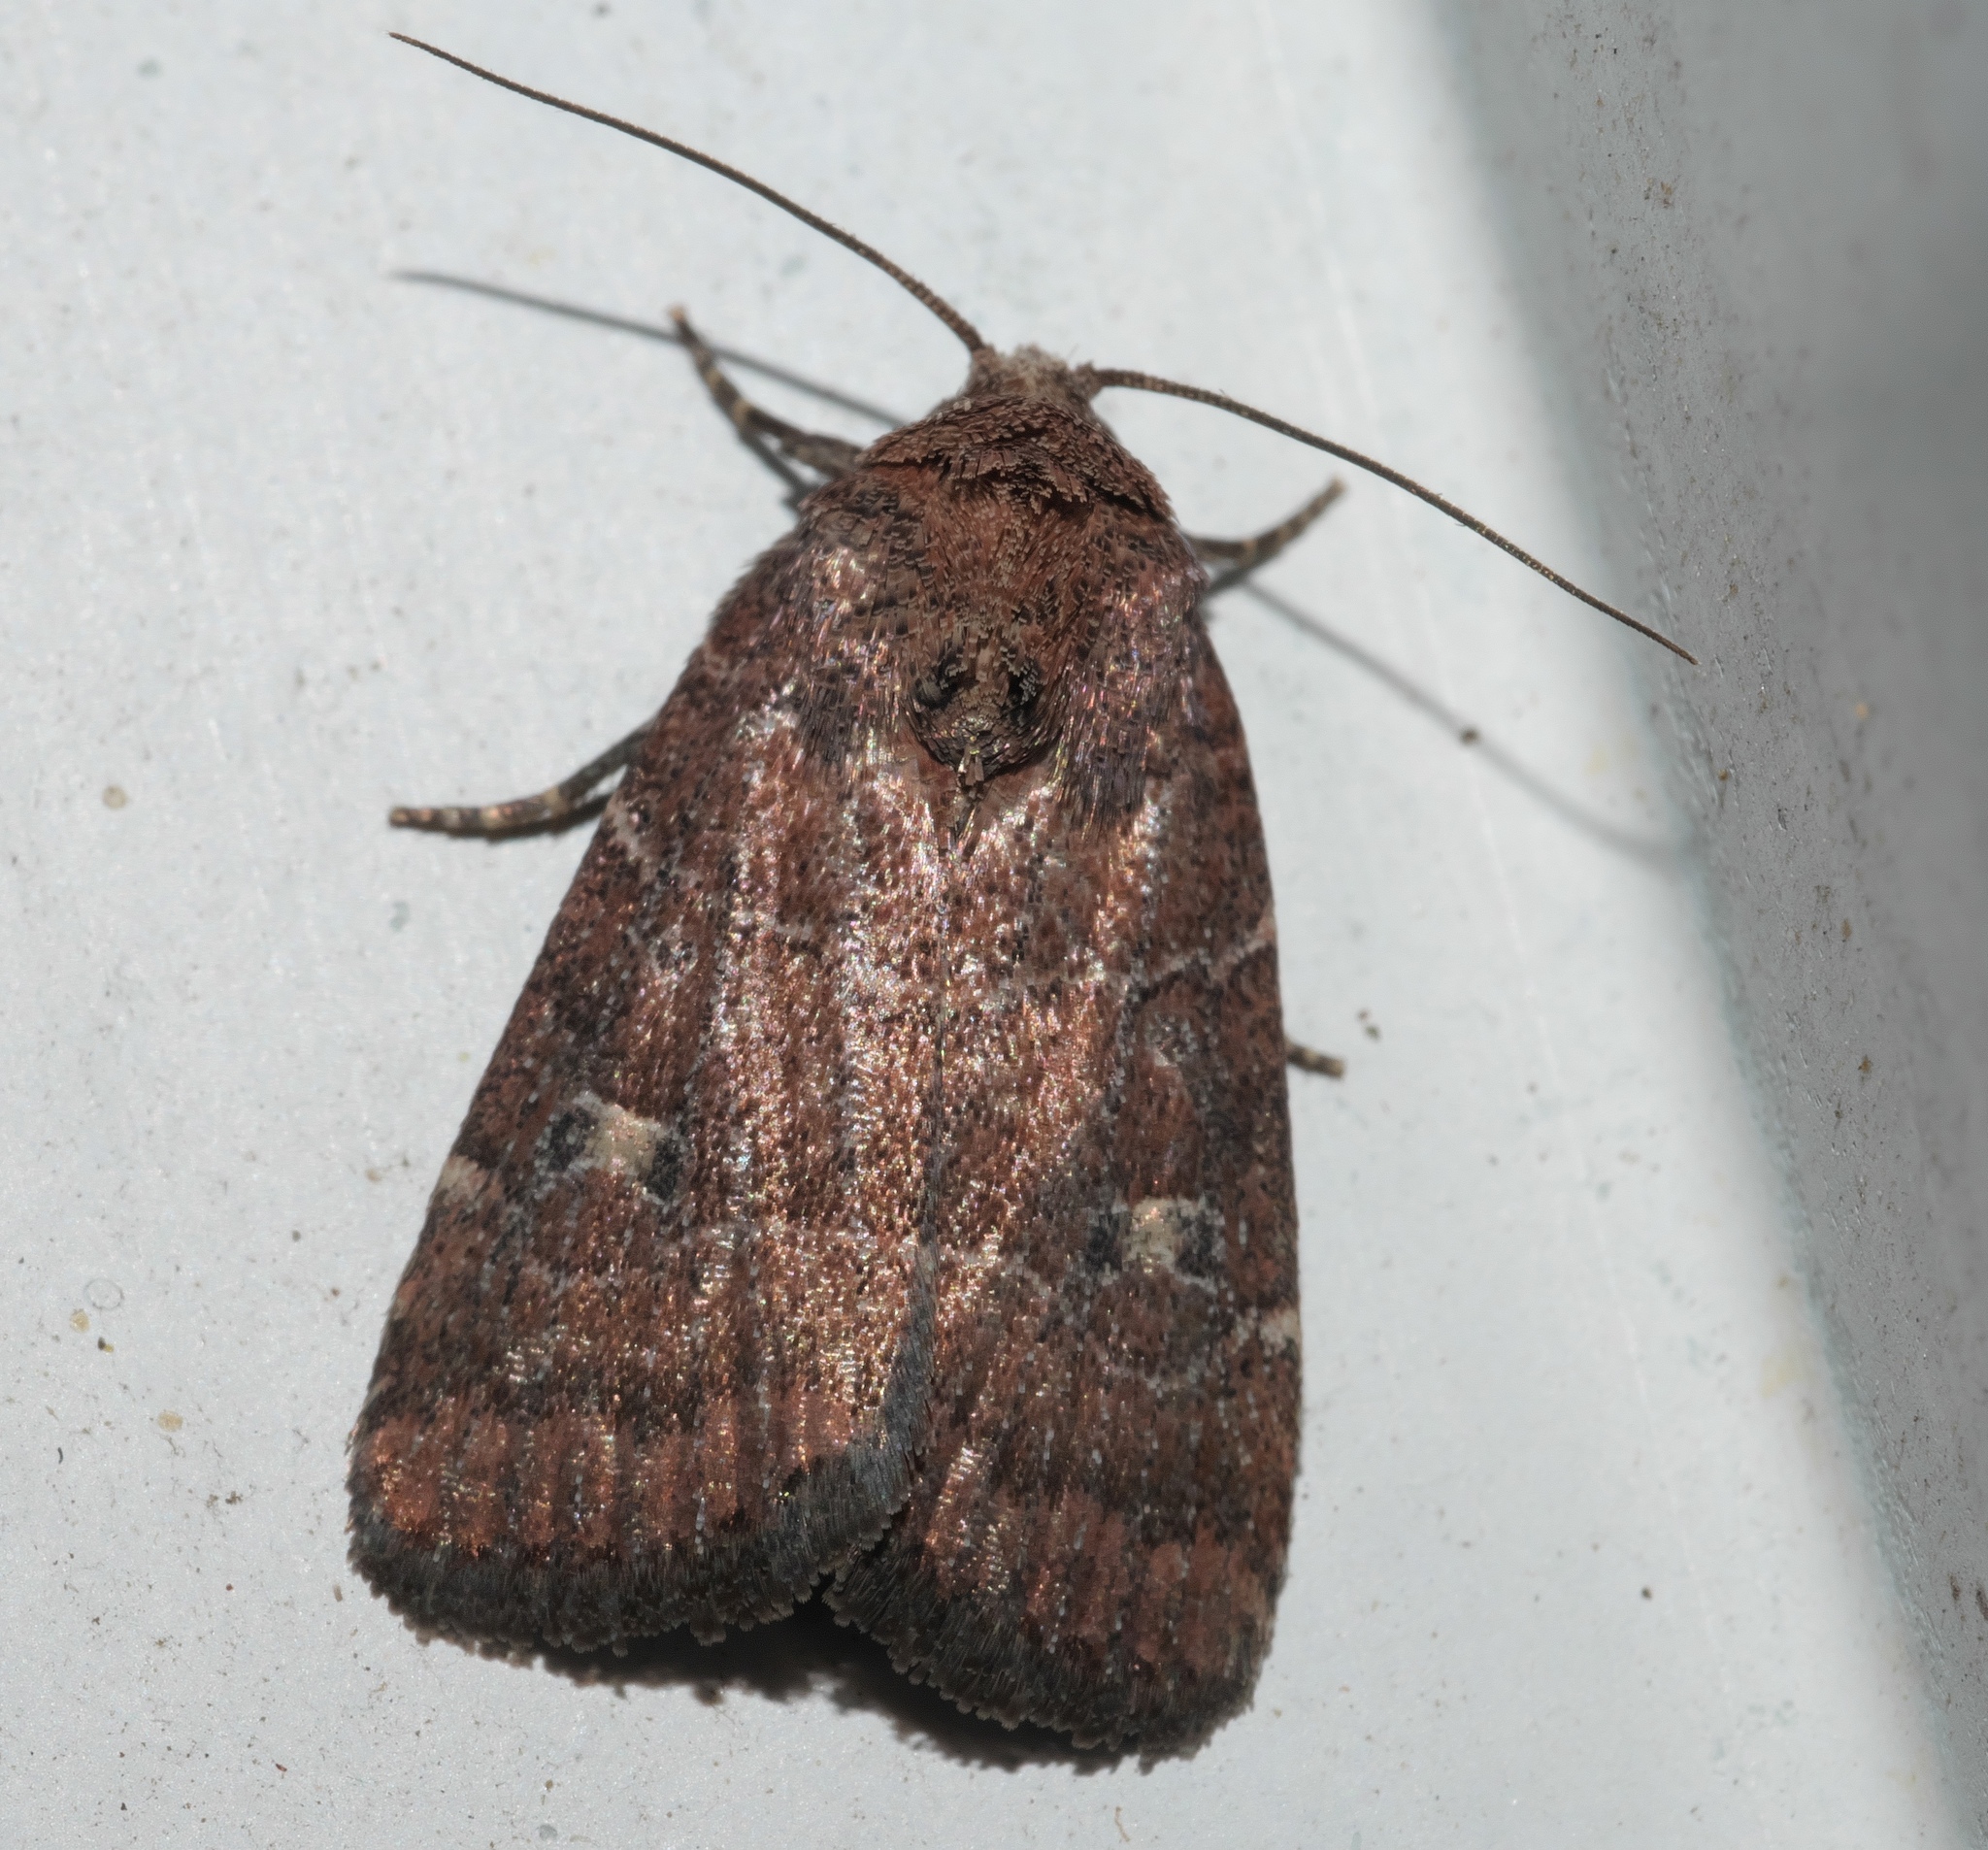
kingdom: Animalia
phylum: Arthropoda
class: Insecta
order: Lepidoptera
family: Noctuidae
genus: Elaphria
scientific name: Elaphria grata
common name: Grateful midget moth
